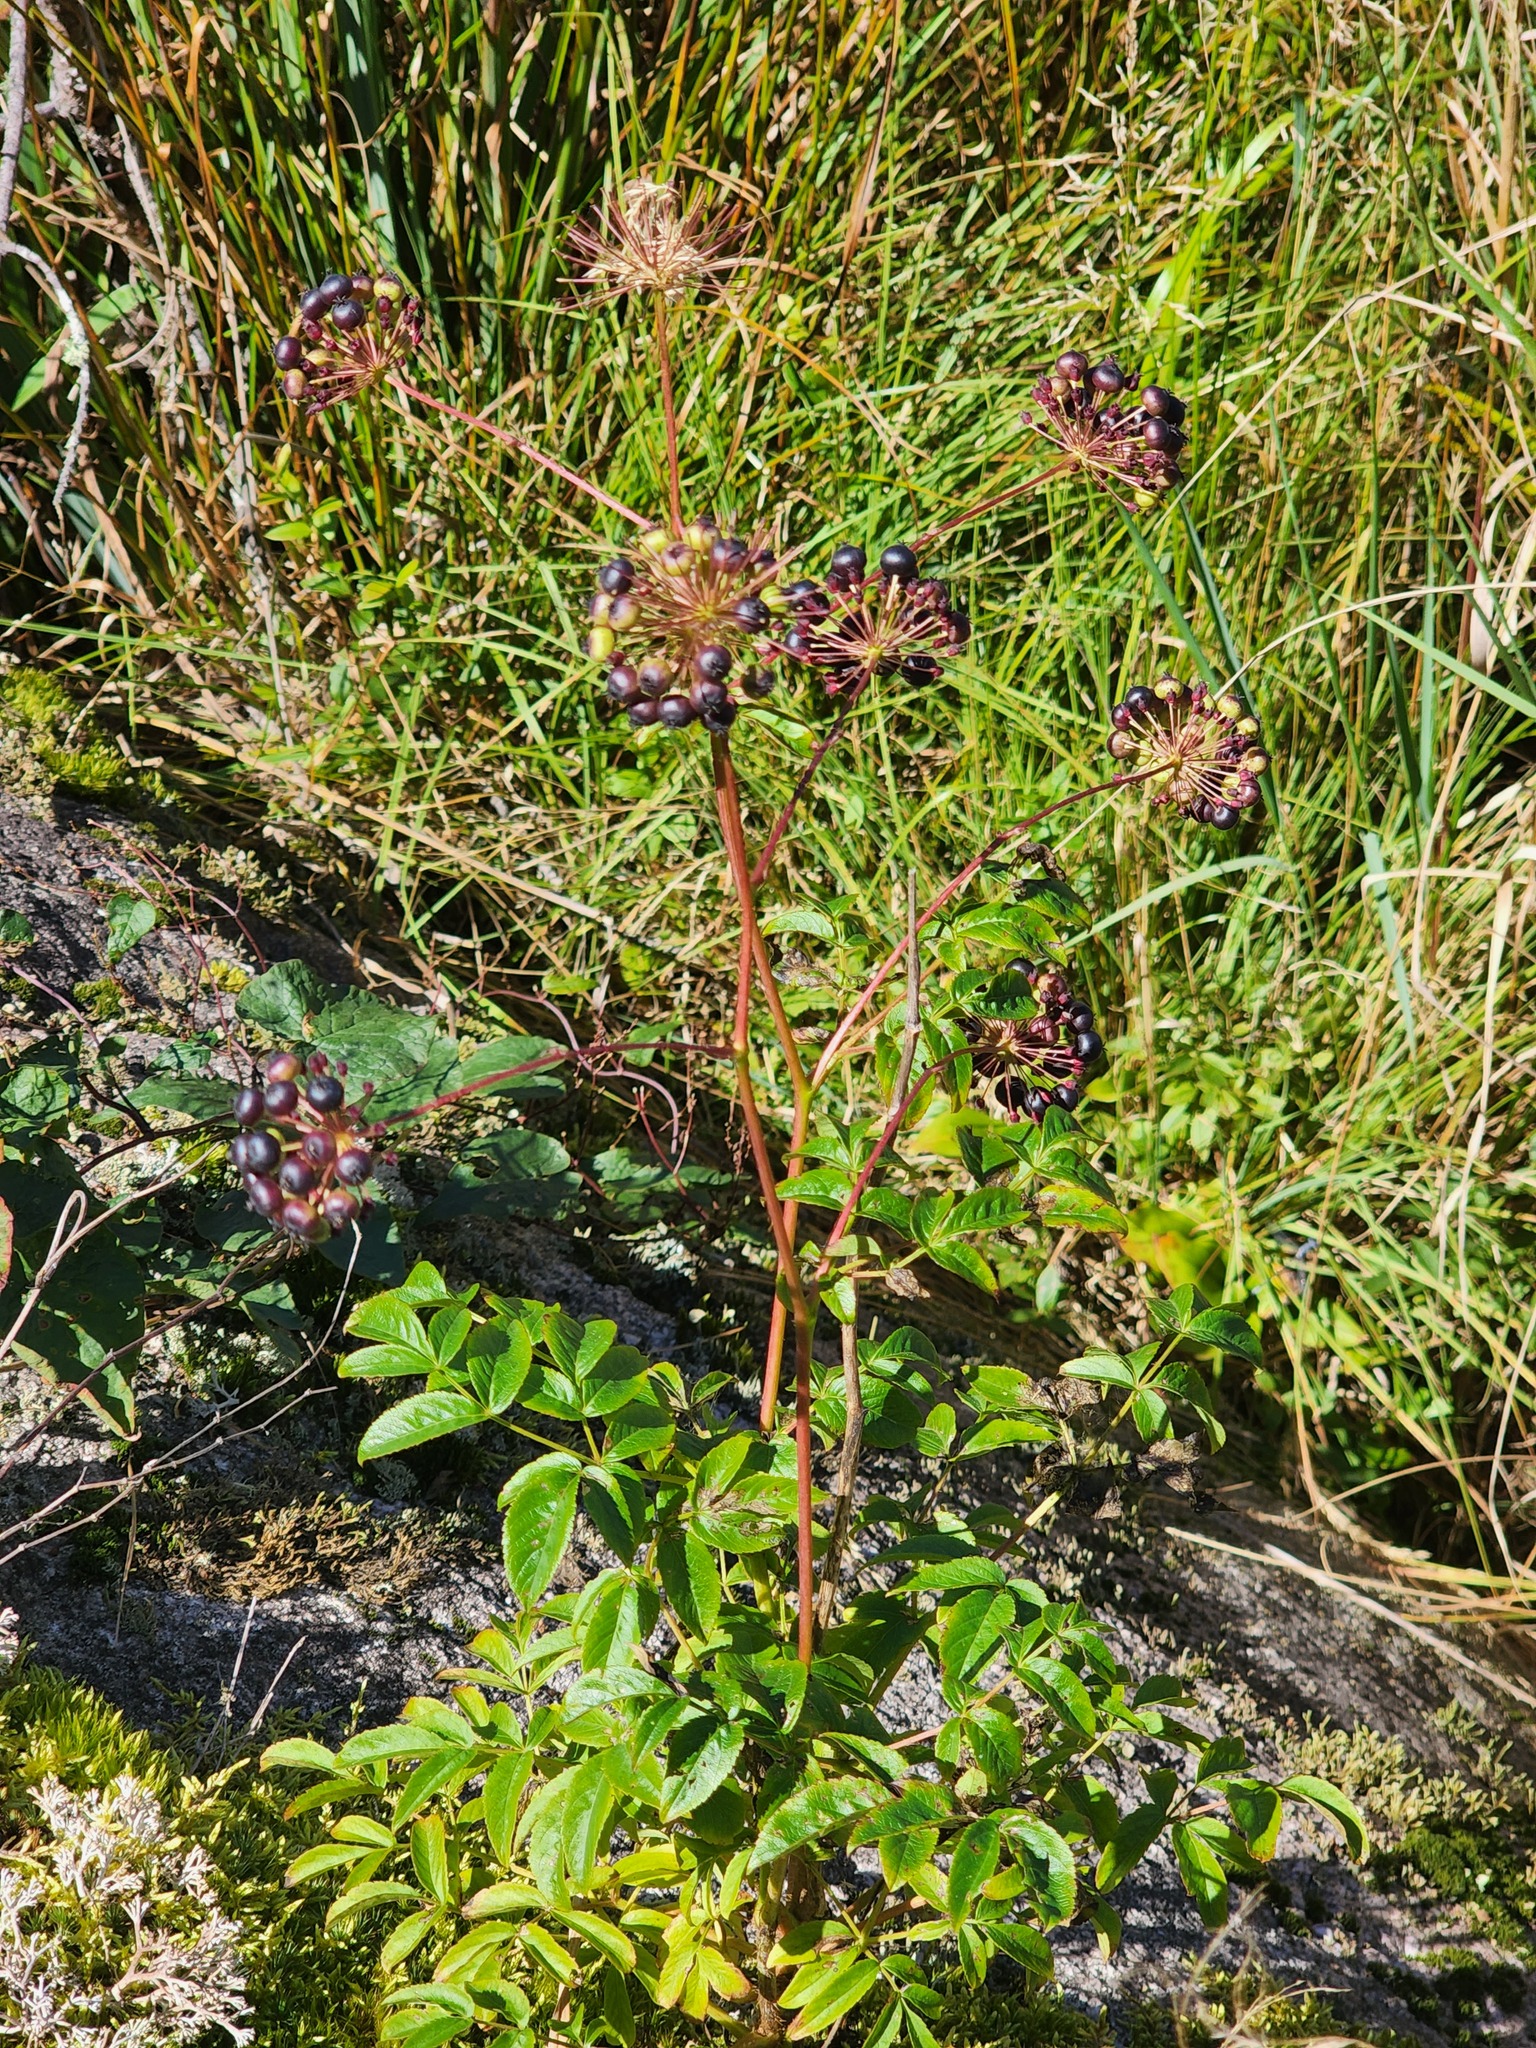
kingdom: Plantae
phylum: Tracheophyta
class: Magnoliopsida
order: Apiales
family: Araliaceae
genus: Aralia
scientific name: Aralia hispida
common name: Bristly sarsaparilla
